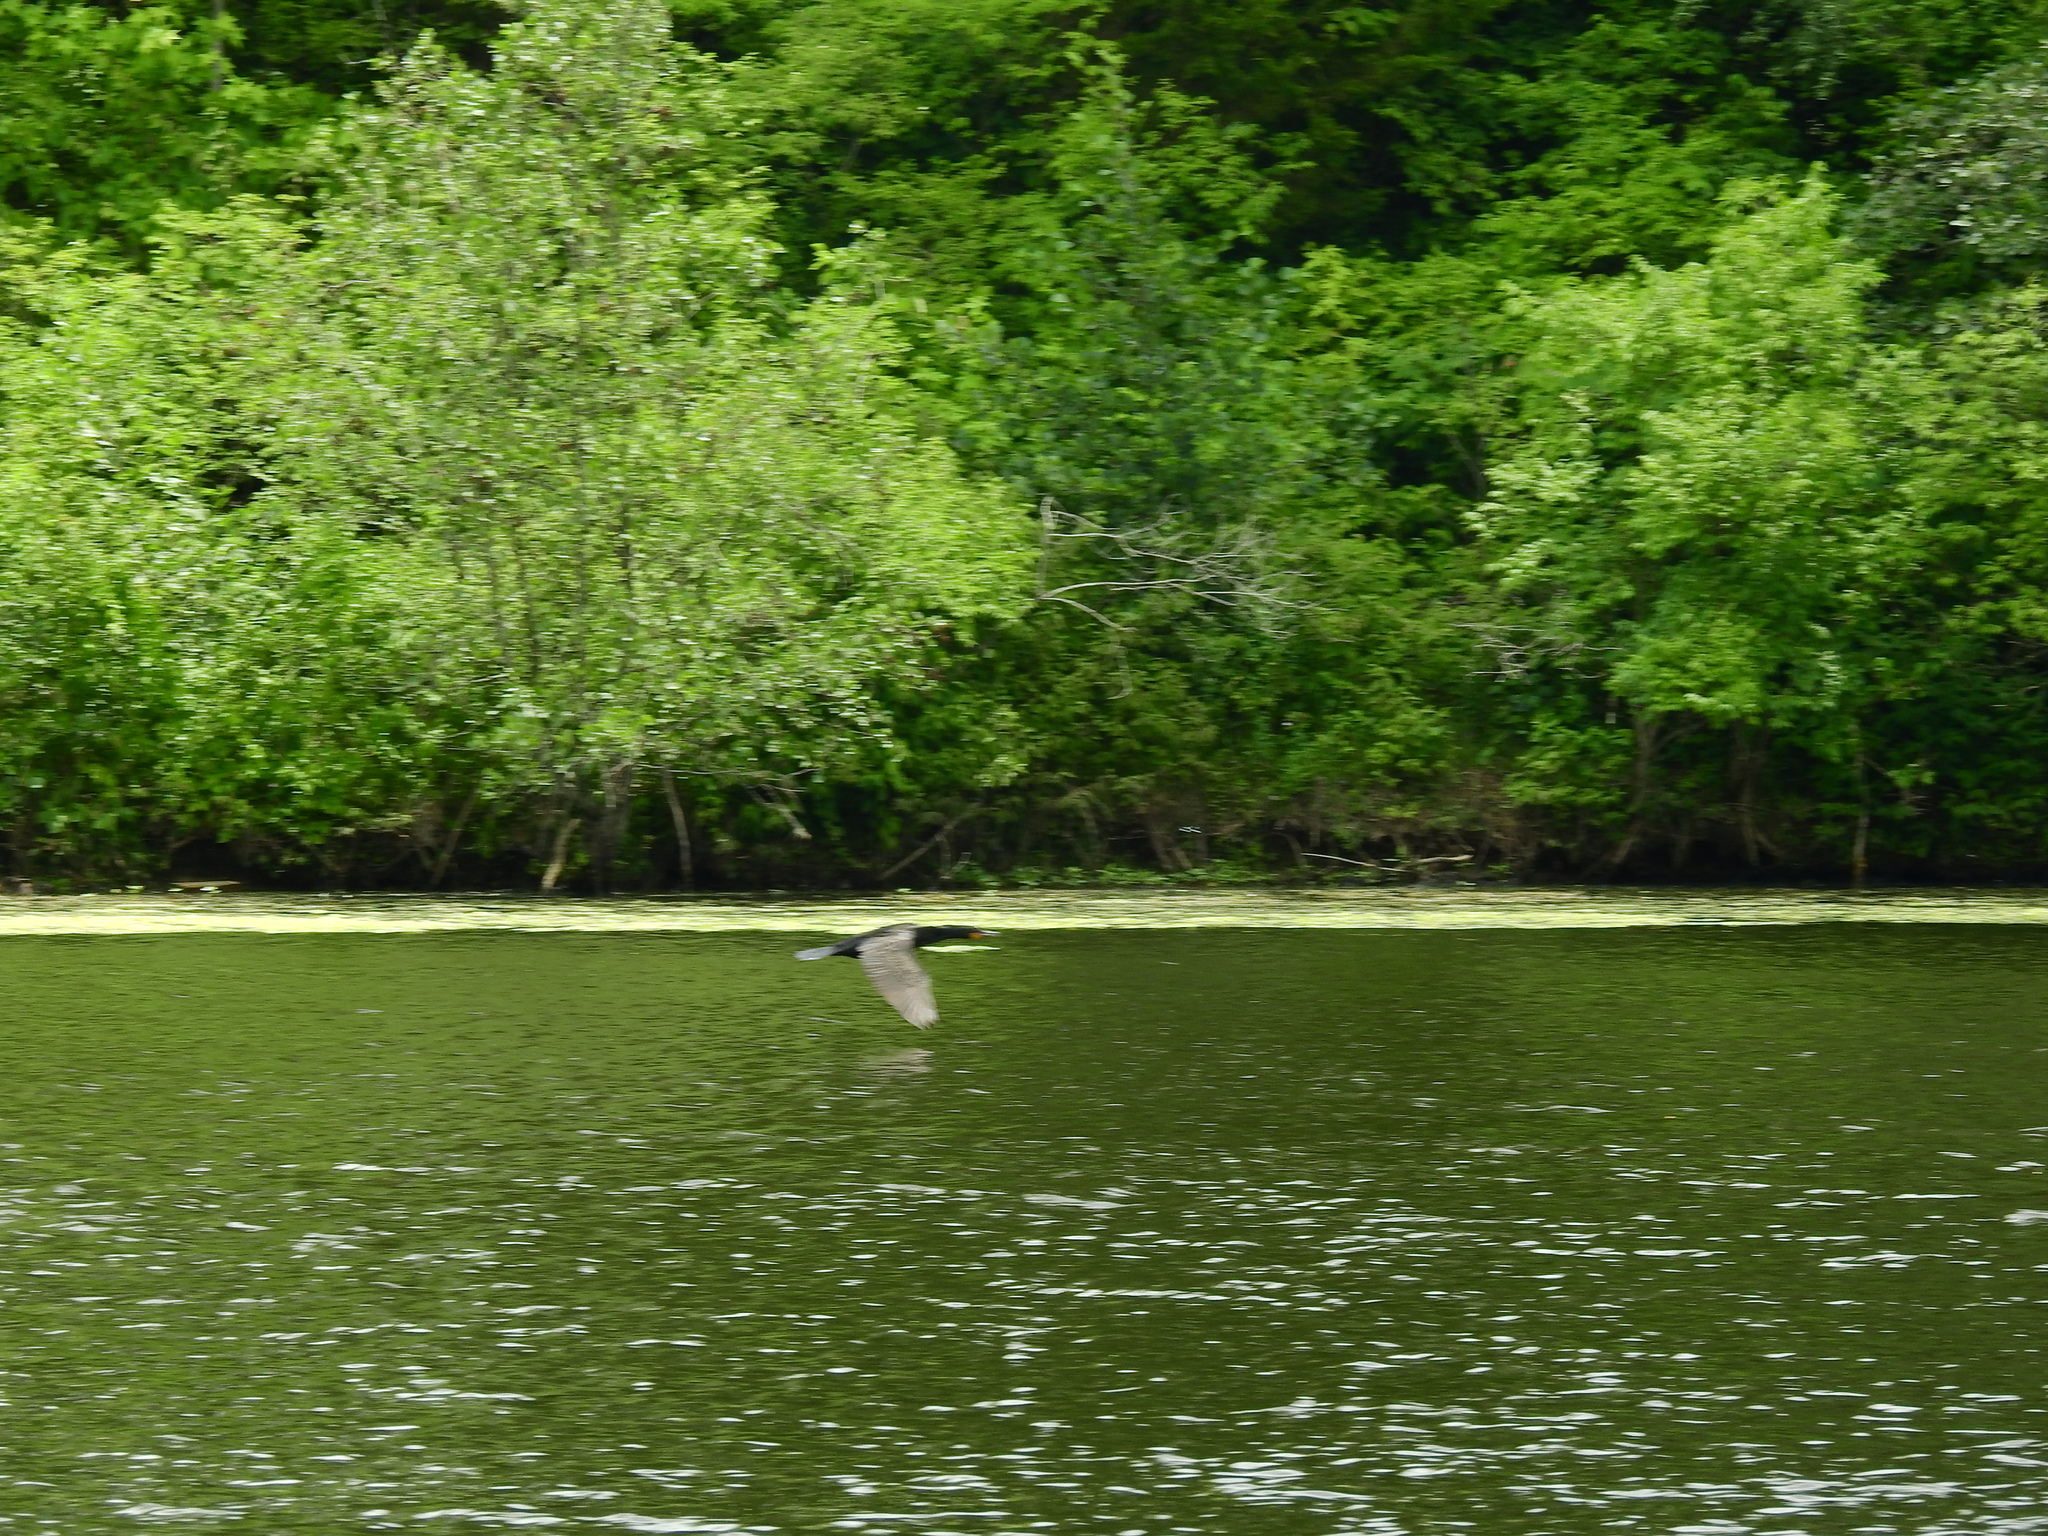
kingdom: Animalia
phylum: Chordata
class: Aves
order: Suliformes
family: Phalacrocoracidae
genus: Phalacrocorax
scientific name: Phalacrocorax auritus
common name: Double-crested cormorant
